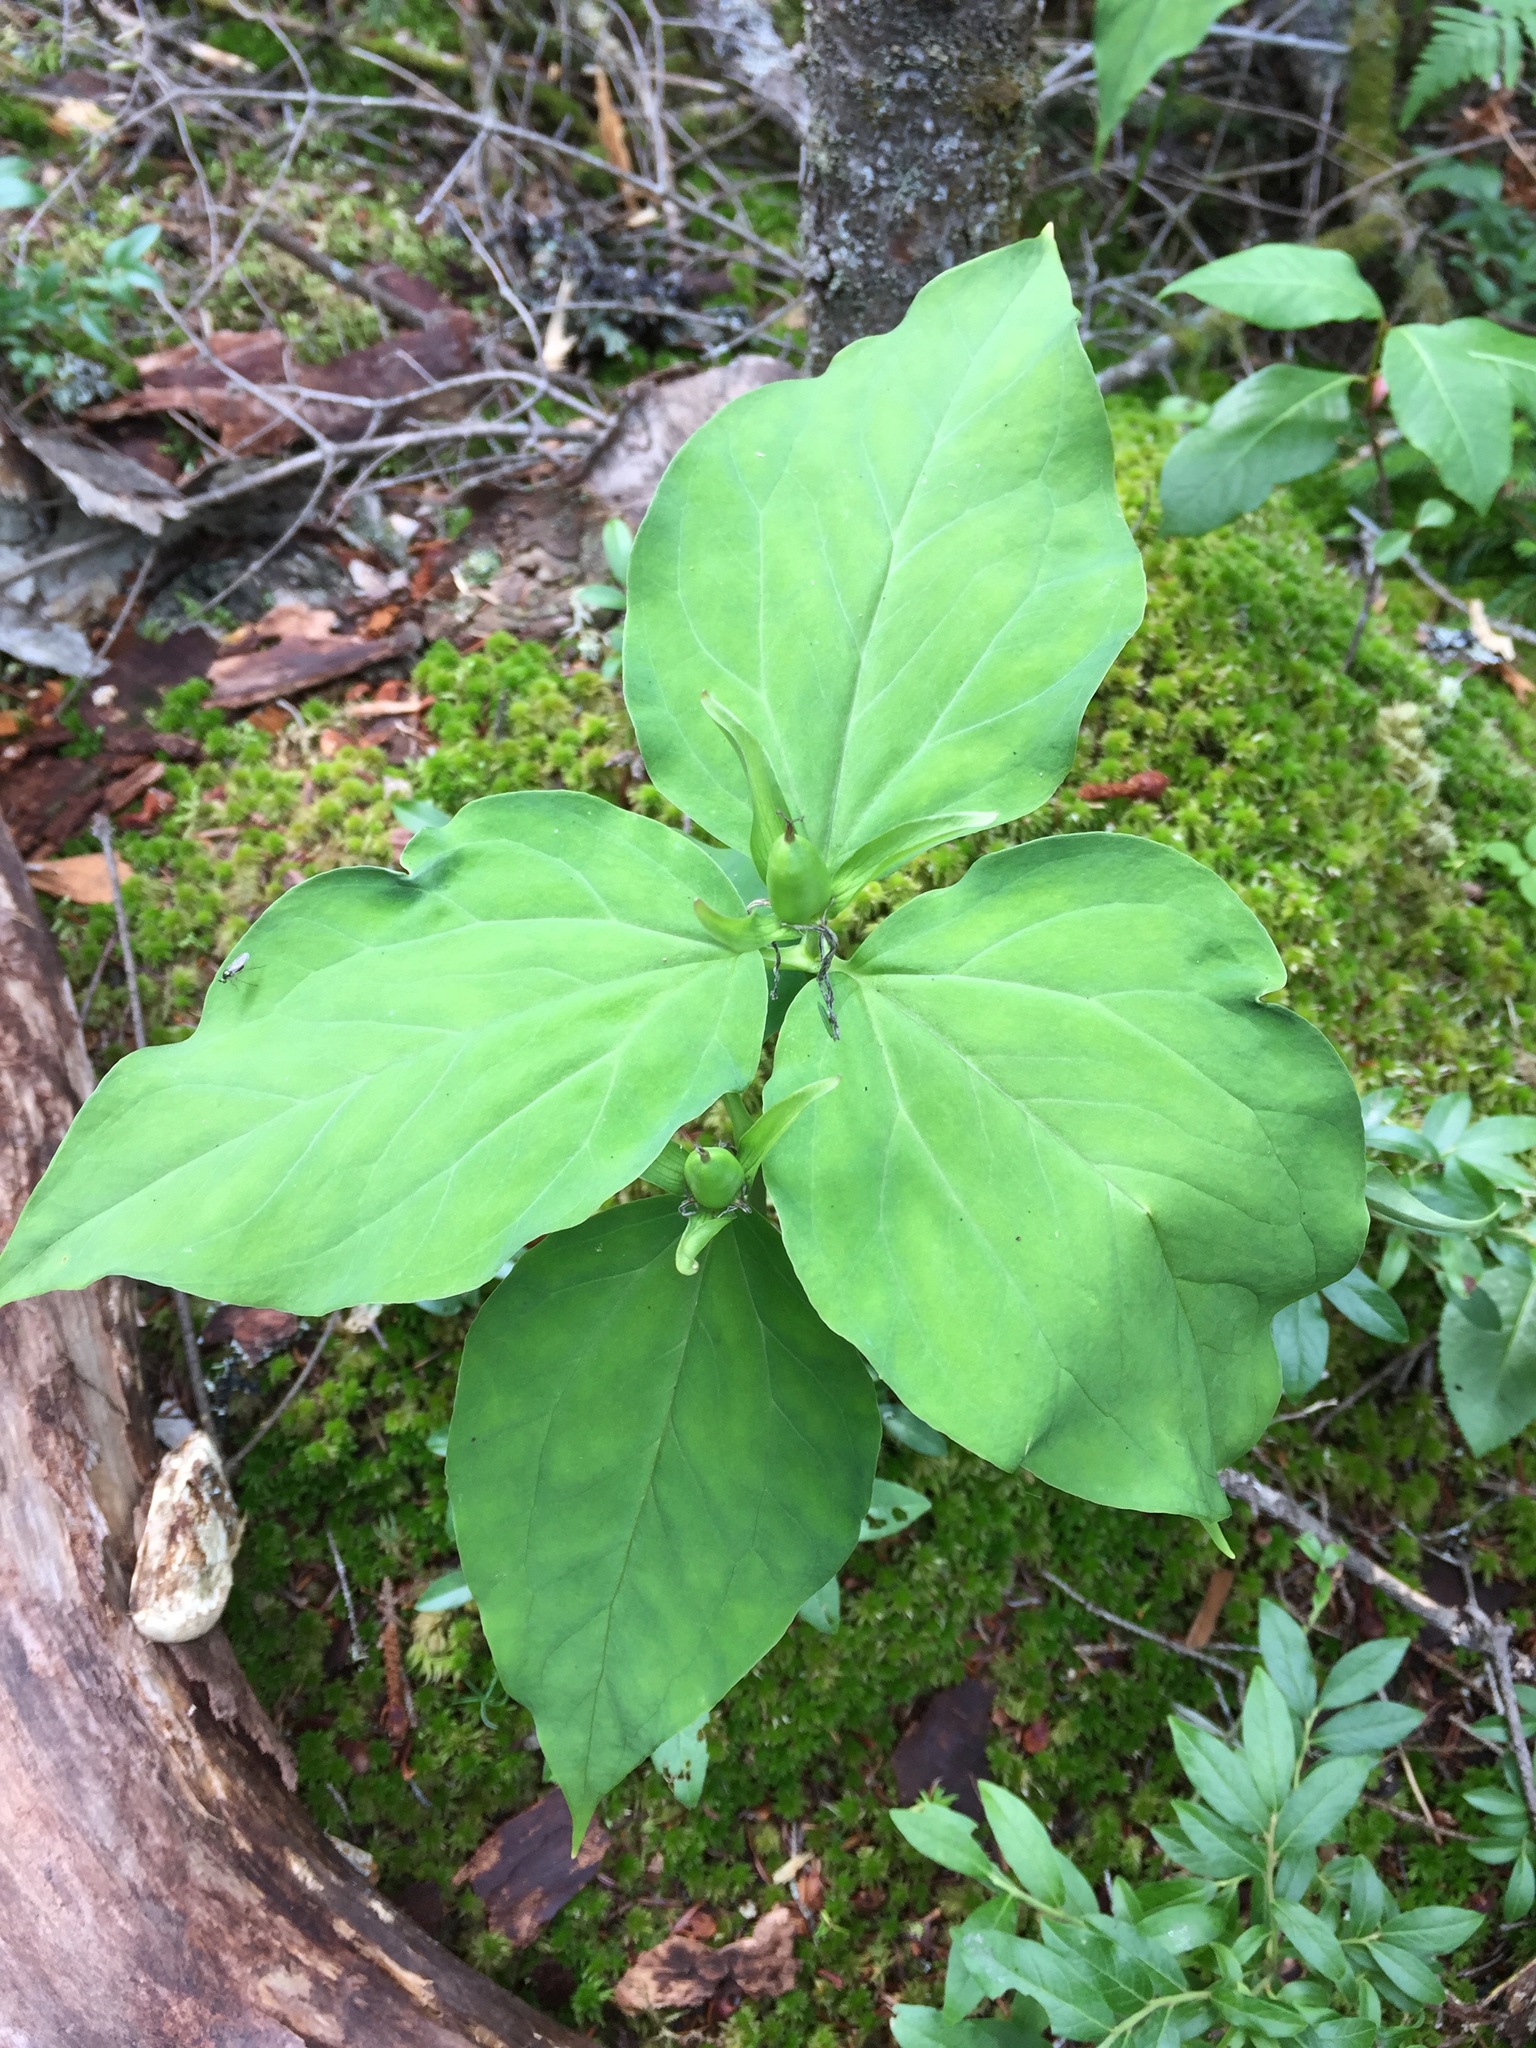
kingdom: Plantae
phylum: Tracheophyta
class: Liliopsida
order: Liliales
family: Melanthiaceae
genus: Trillium
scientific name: Trillium undulatum
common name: Paint trillium
